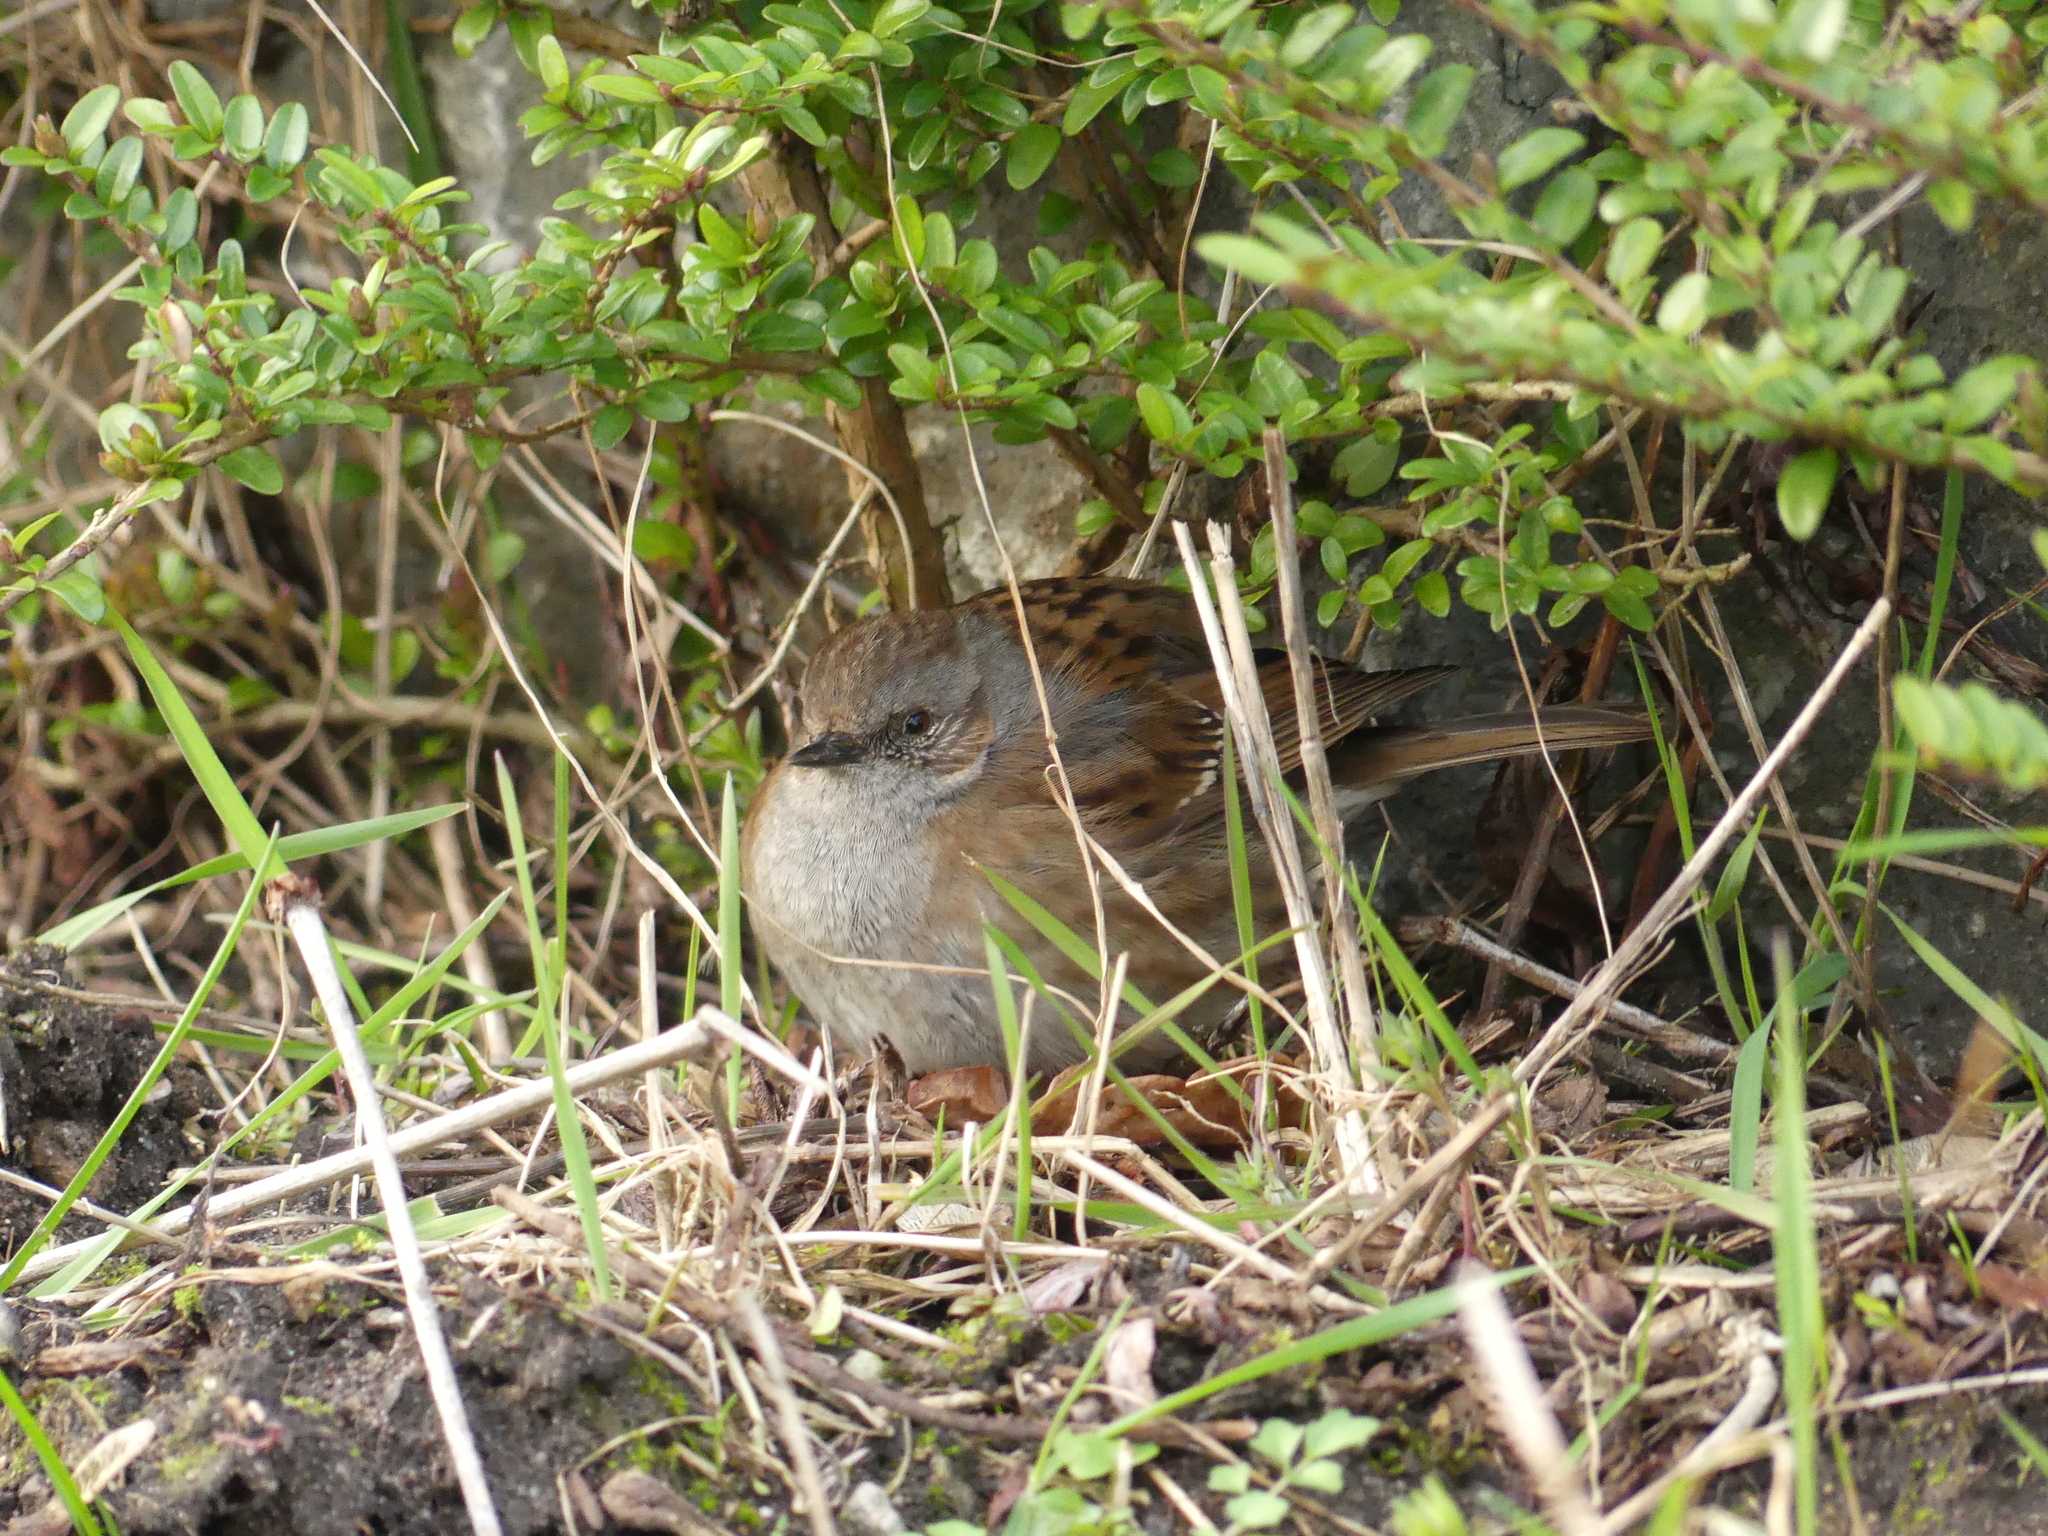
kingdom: Animalia
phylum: Chordata
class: Aves
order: Passeriformes
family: Prunellidae
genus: Prunella
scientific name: Prunella modularis
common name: Dunnock
